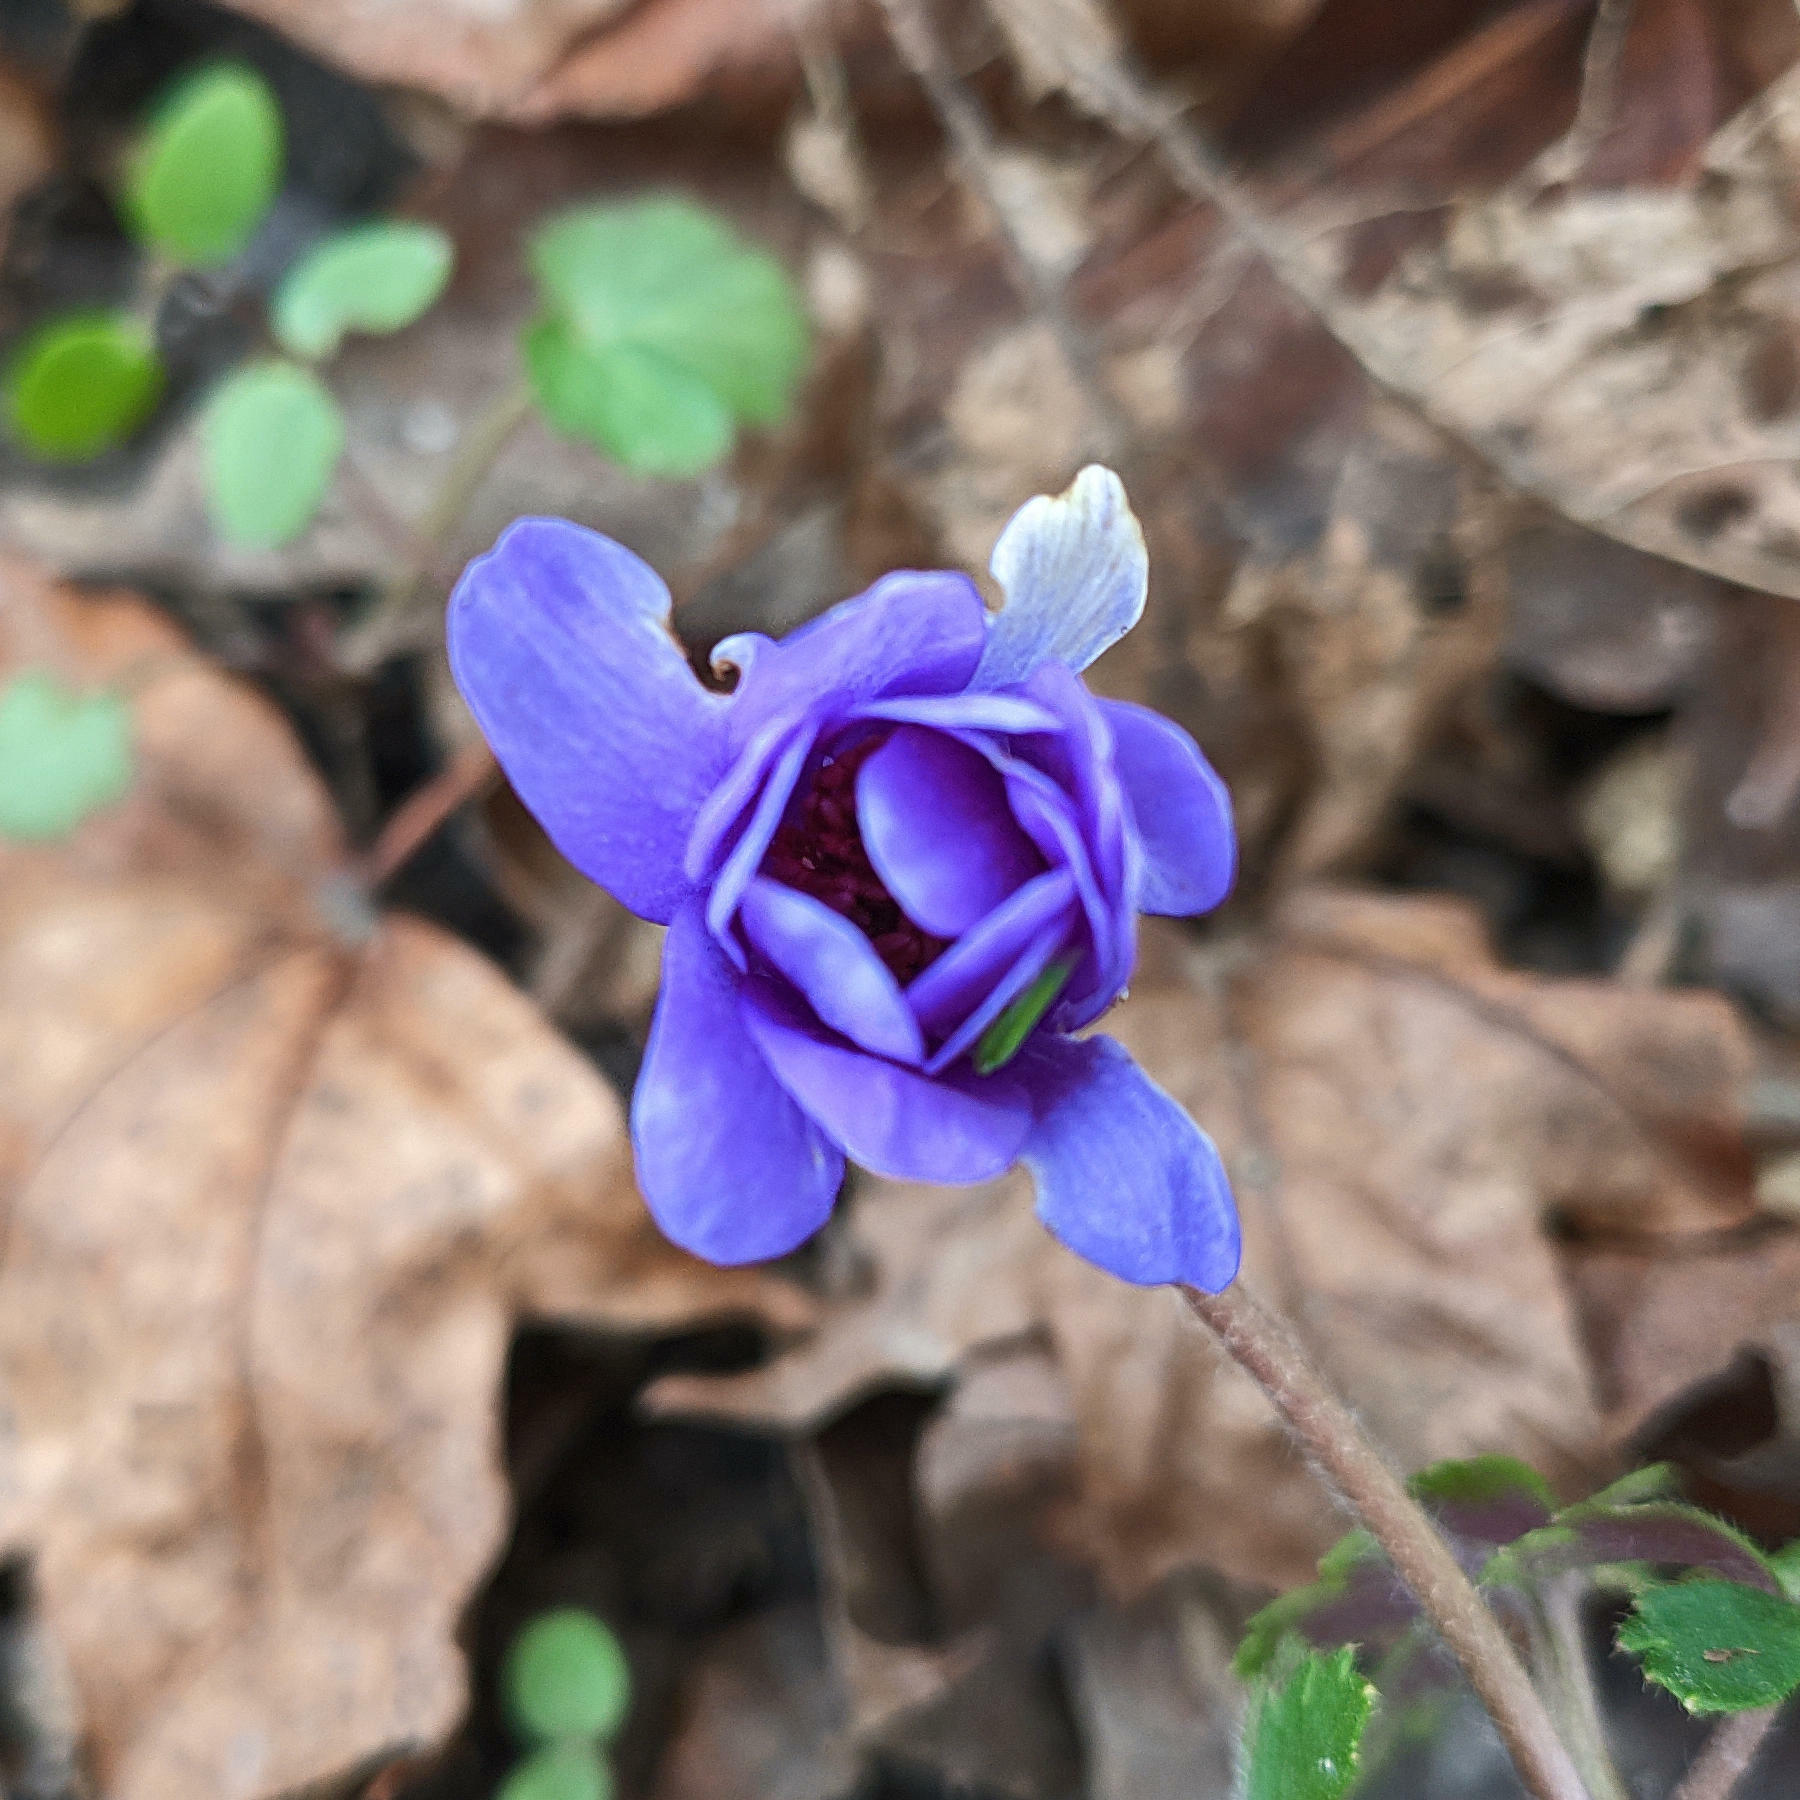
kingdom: Plantae
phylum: Tracheophyta
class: Magnoliopsida
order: Ranunculales
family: Ranunculaceae
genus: Anemone
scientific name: Anemone blanda
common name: Balkan anemone
